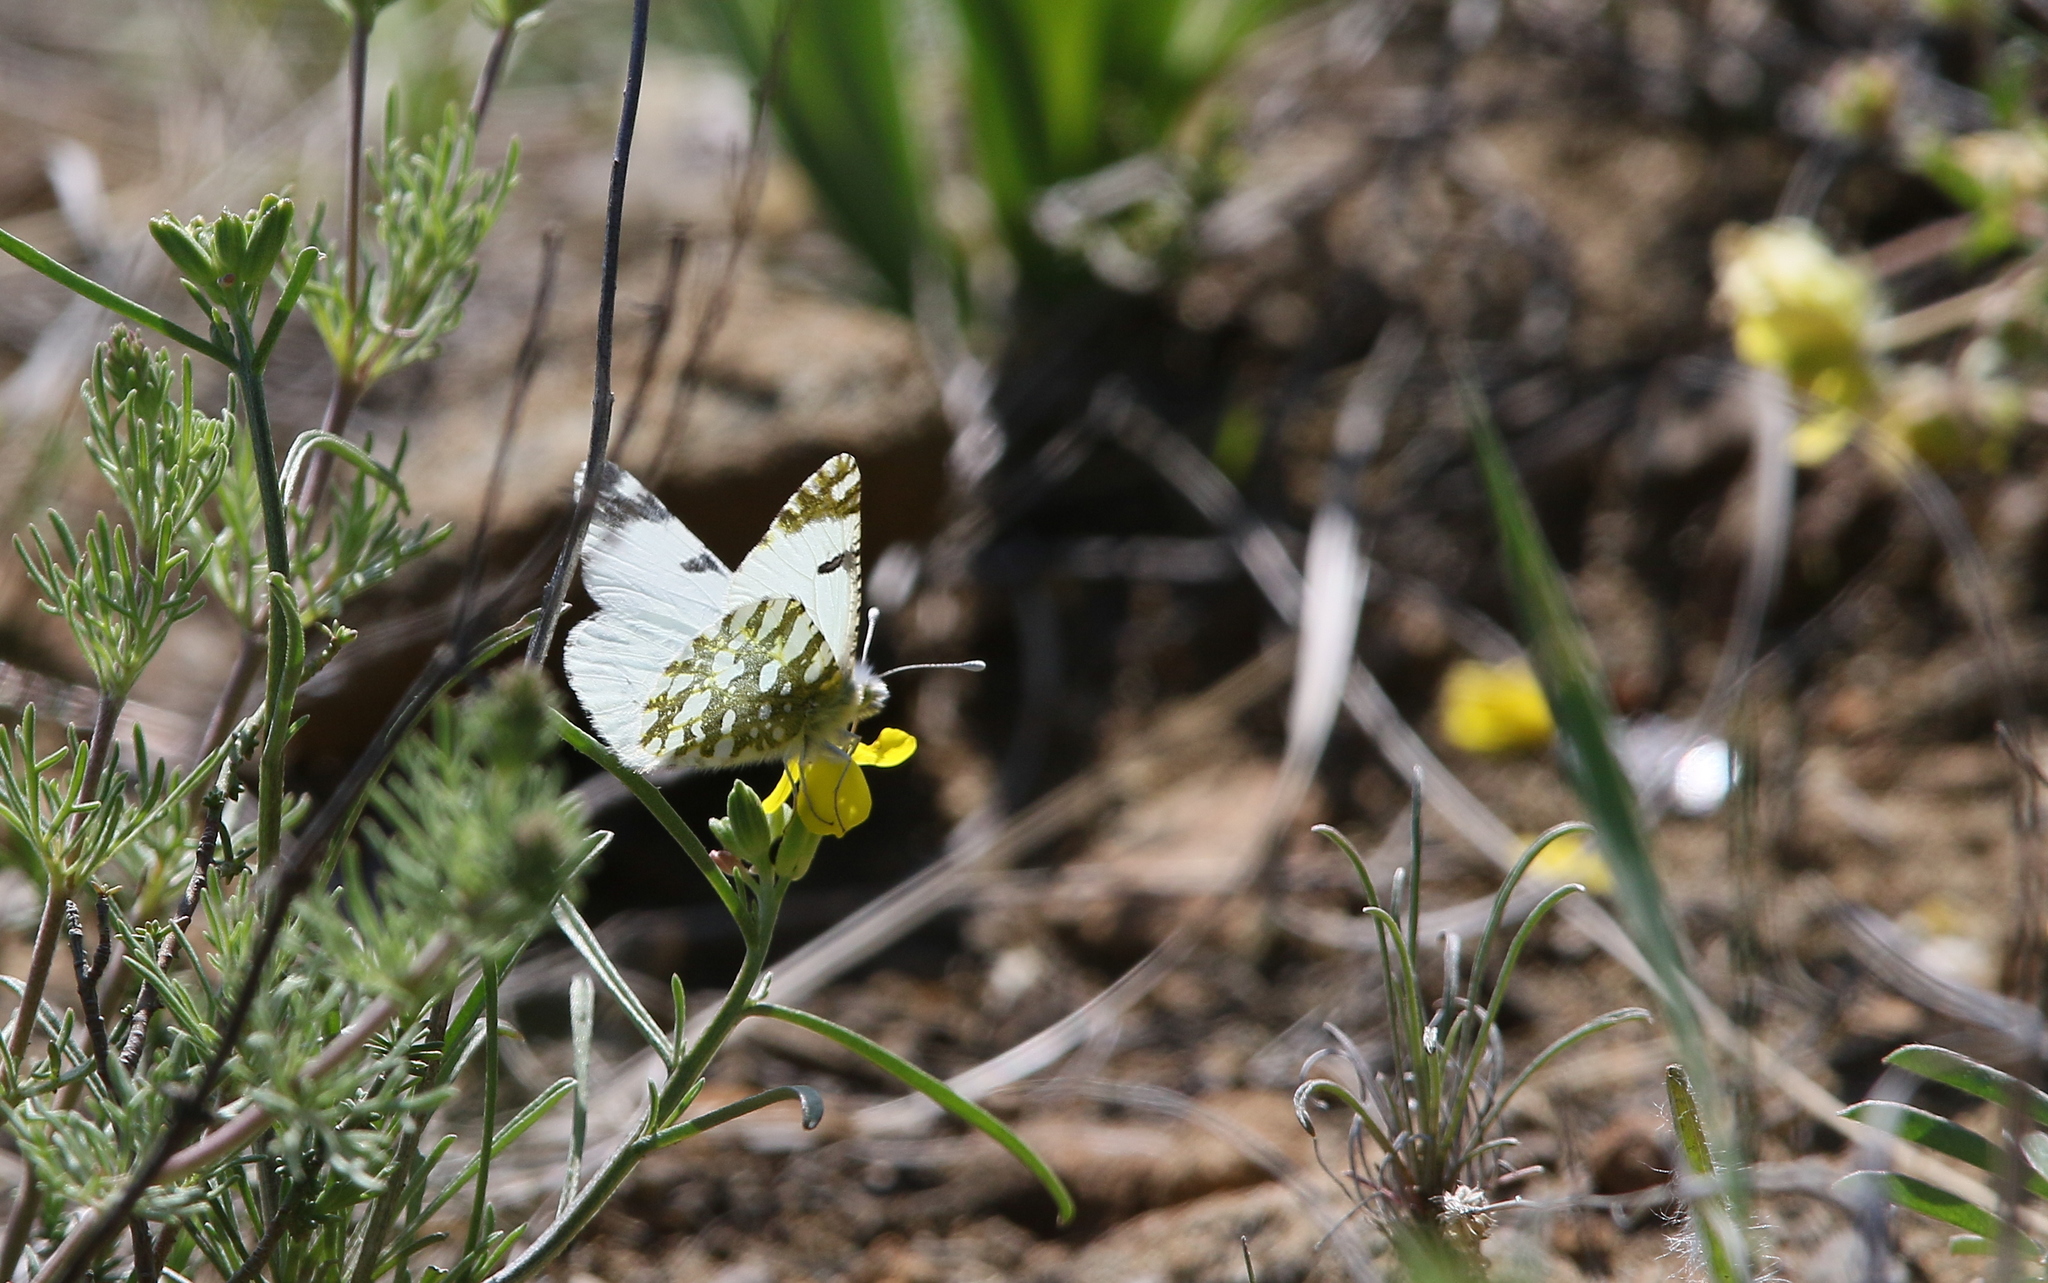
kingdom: Animalia
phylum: Arthropoda
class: Insecta
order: Lepidoptera
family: Pieridae
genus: Euchloe
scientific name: Euchloe ausonia
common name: Eastern dappled white
